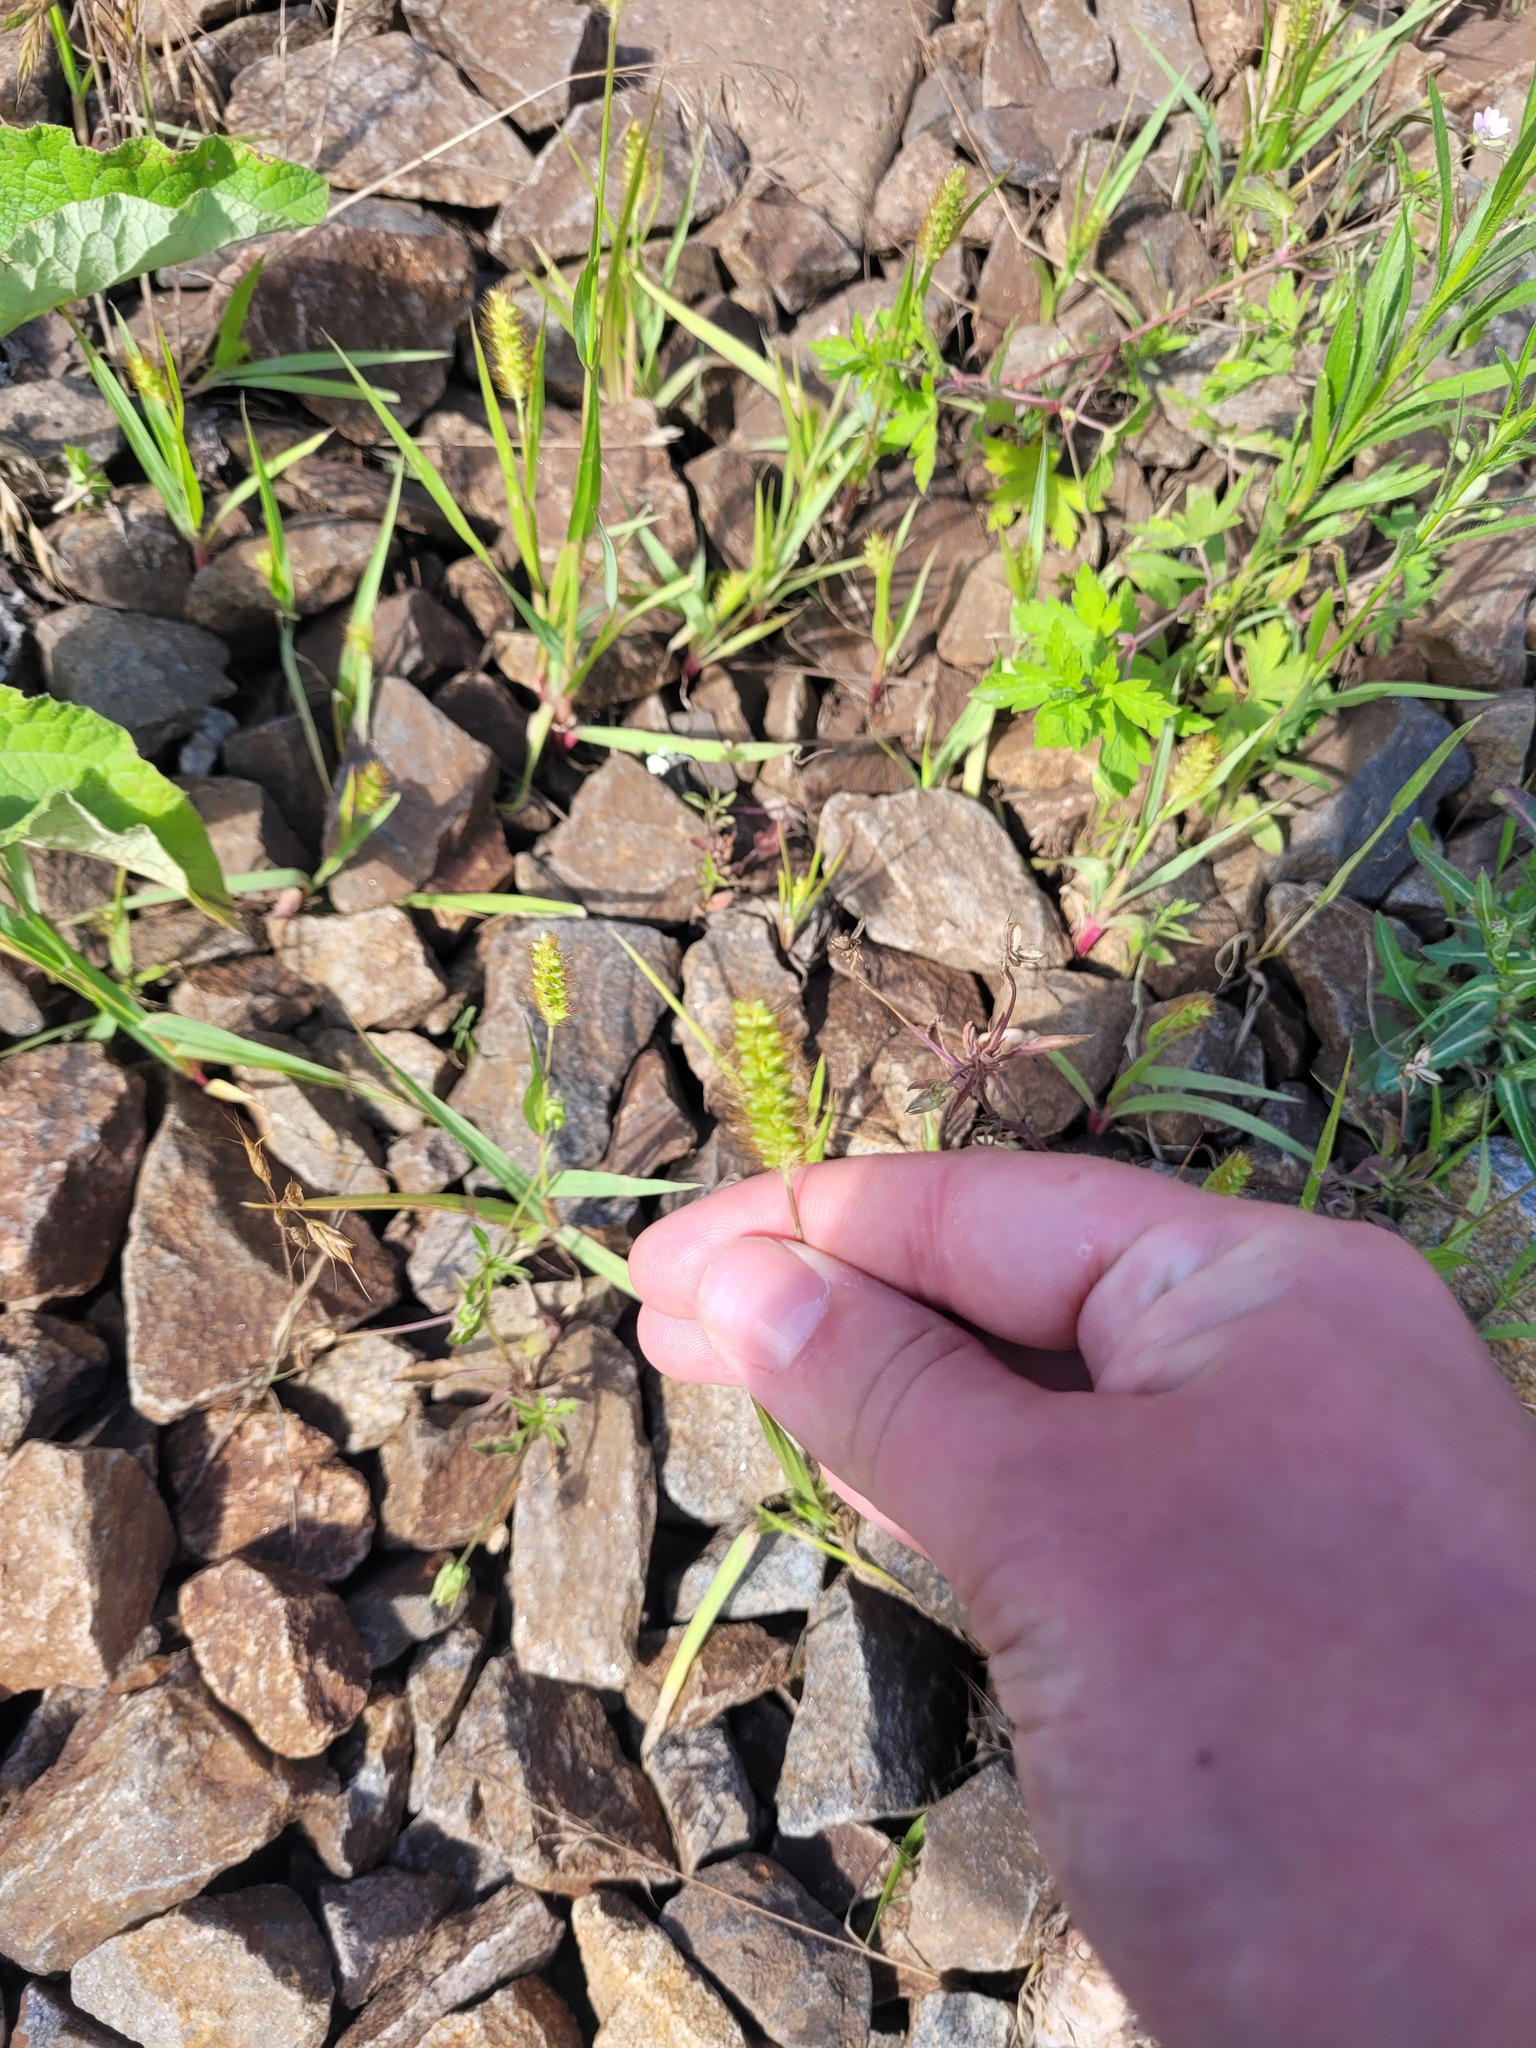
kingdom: Plantae
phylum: Tracheophyta
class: Liliopsida
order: Poales
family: Poaceae
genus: Setaria
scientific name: Setaria pumila
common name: Yellow bristle-grass
